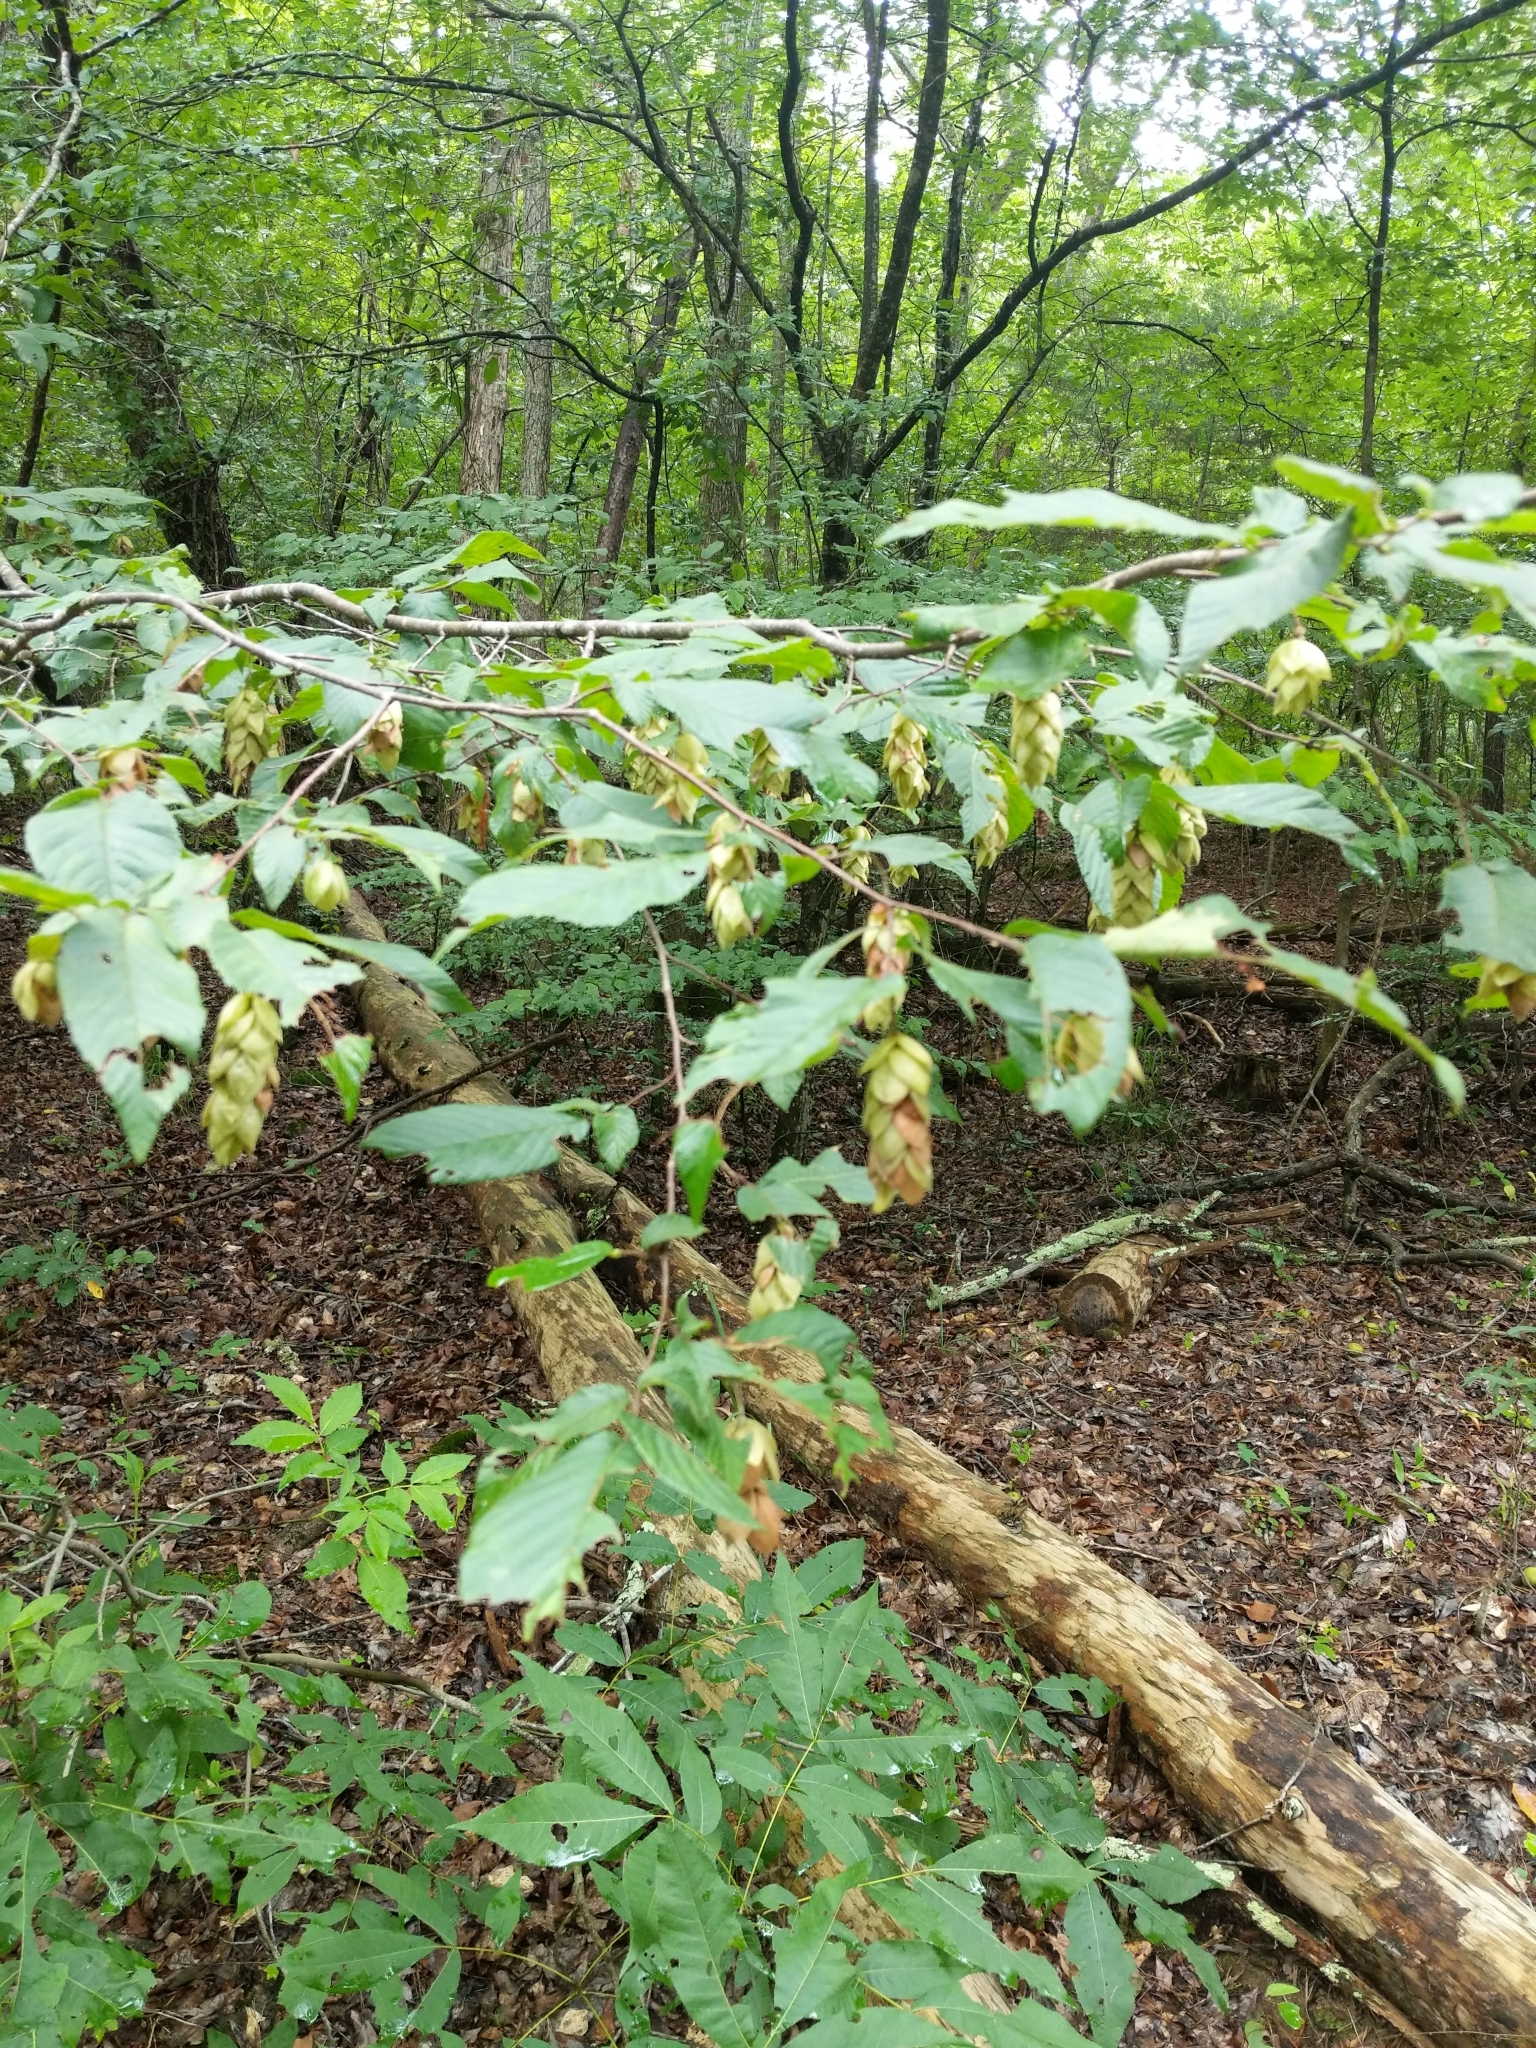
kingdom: Plantae
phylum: Tracheophyta
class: Magnoliopsida
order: Fagales
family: Betulaceae
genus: Ostrya
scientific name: Ostrya virginiana
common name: Ironwood
